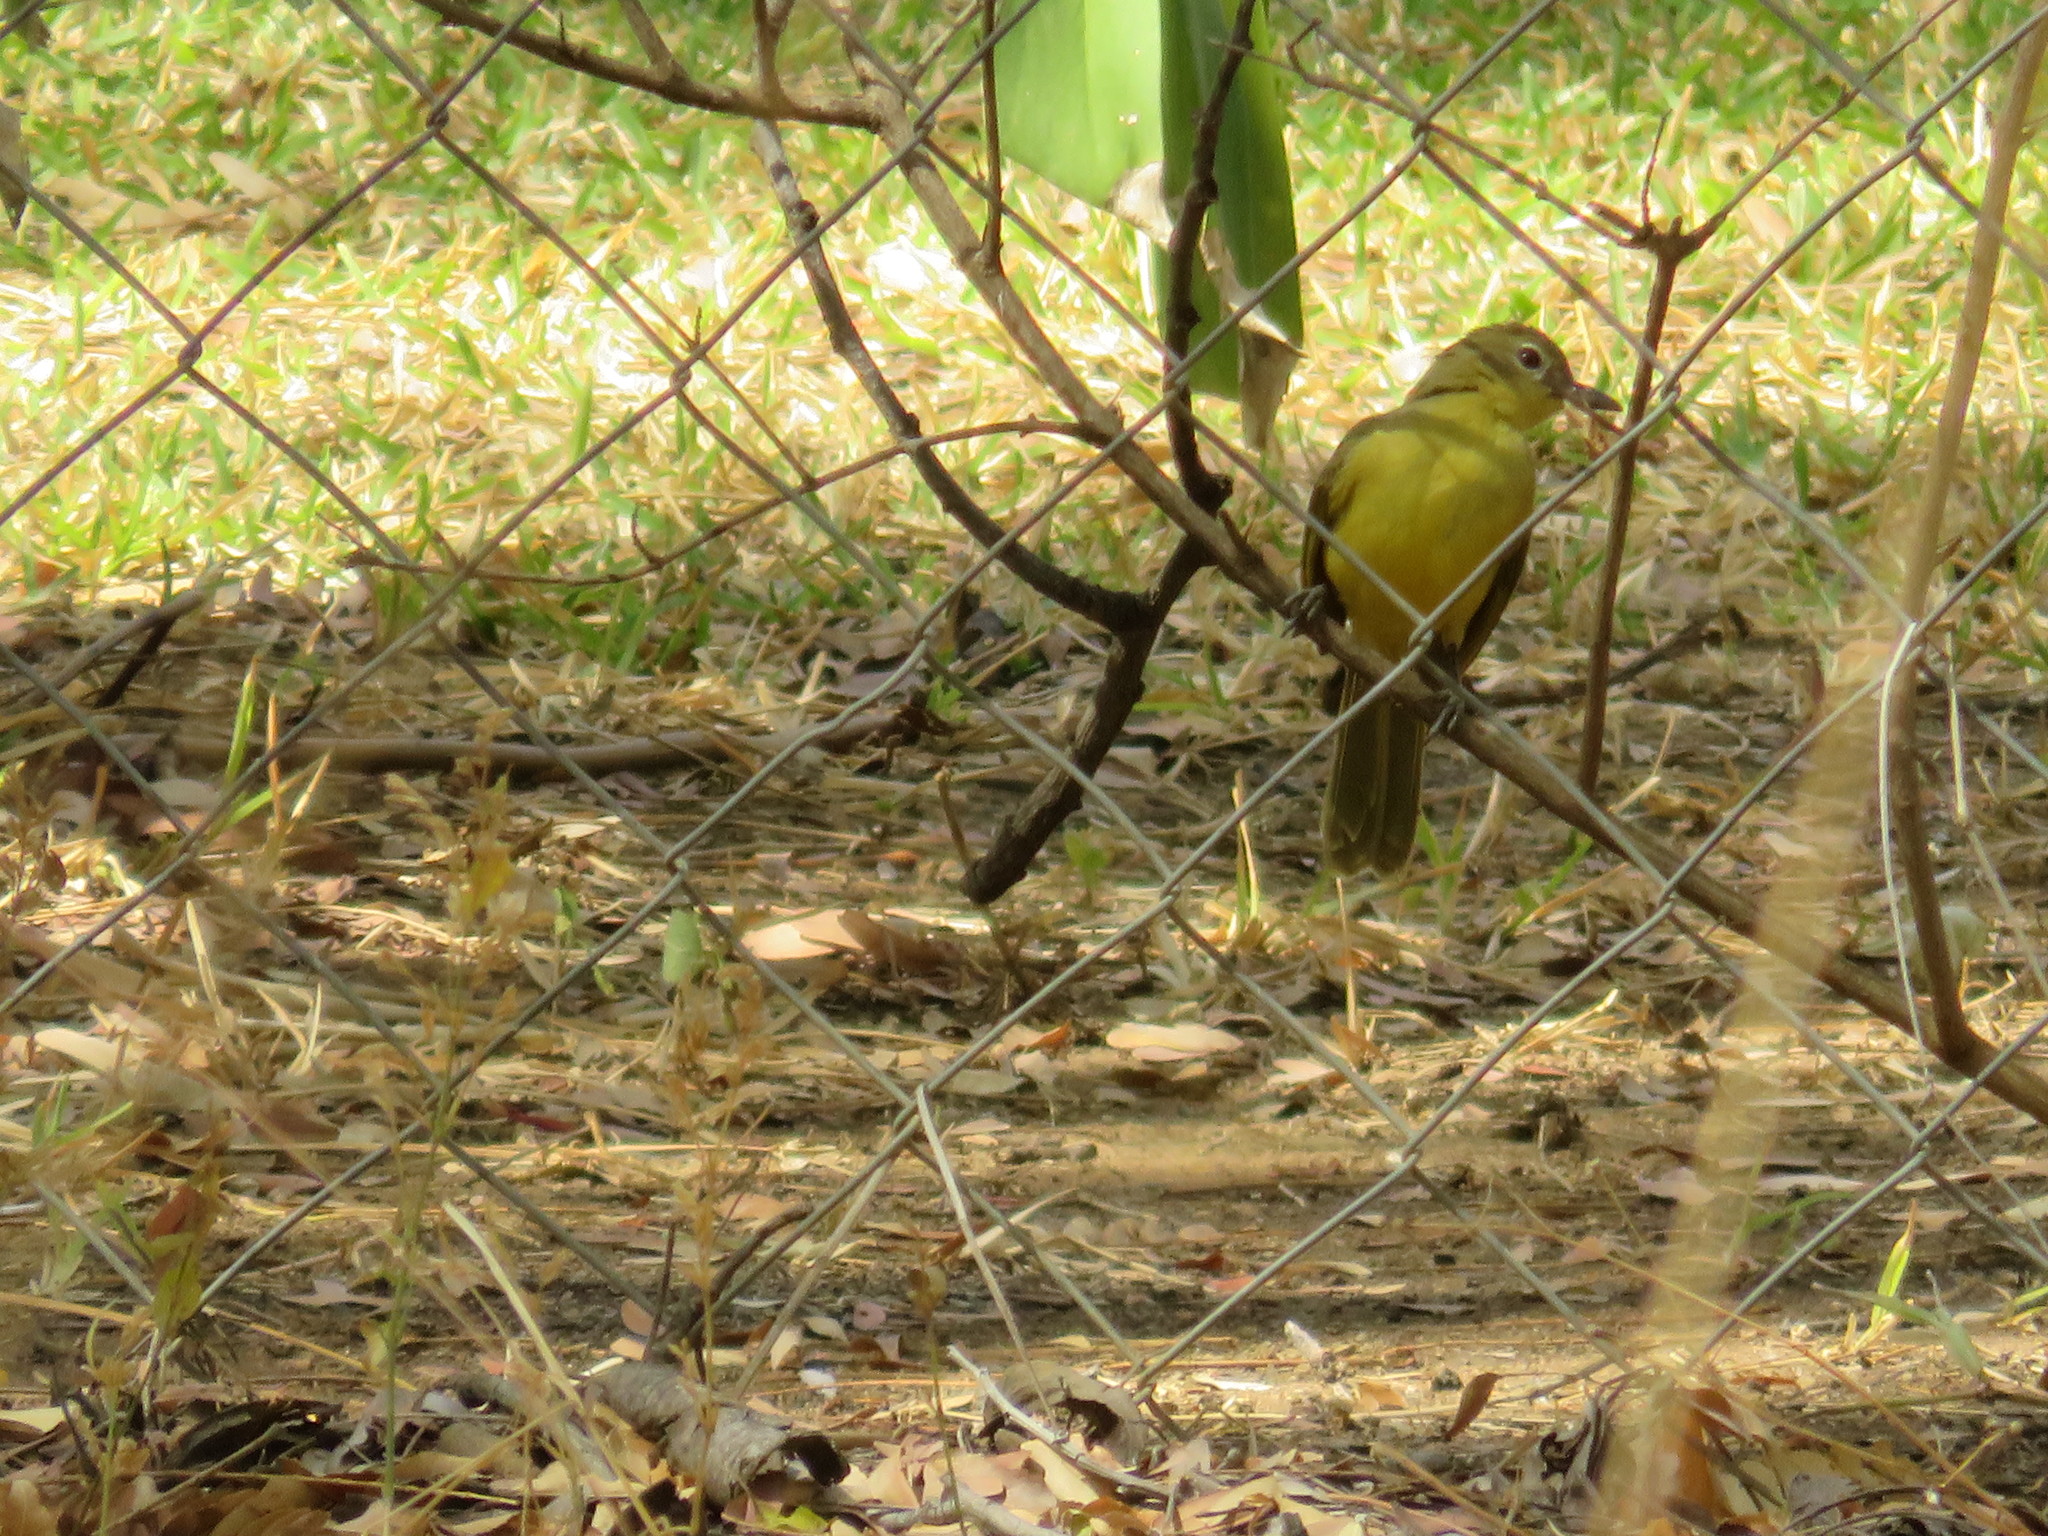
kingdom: Animalia
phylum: Chordata
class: Aves
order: Passeriformes
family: Pycnonotidae
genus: Chlorocichla
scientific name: Chlorocichla flaviventris
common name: Yellow-bellied greenbul
